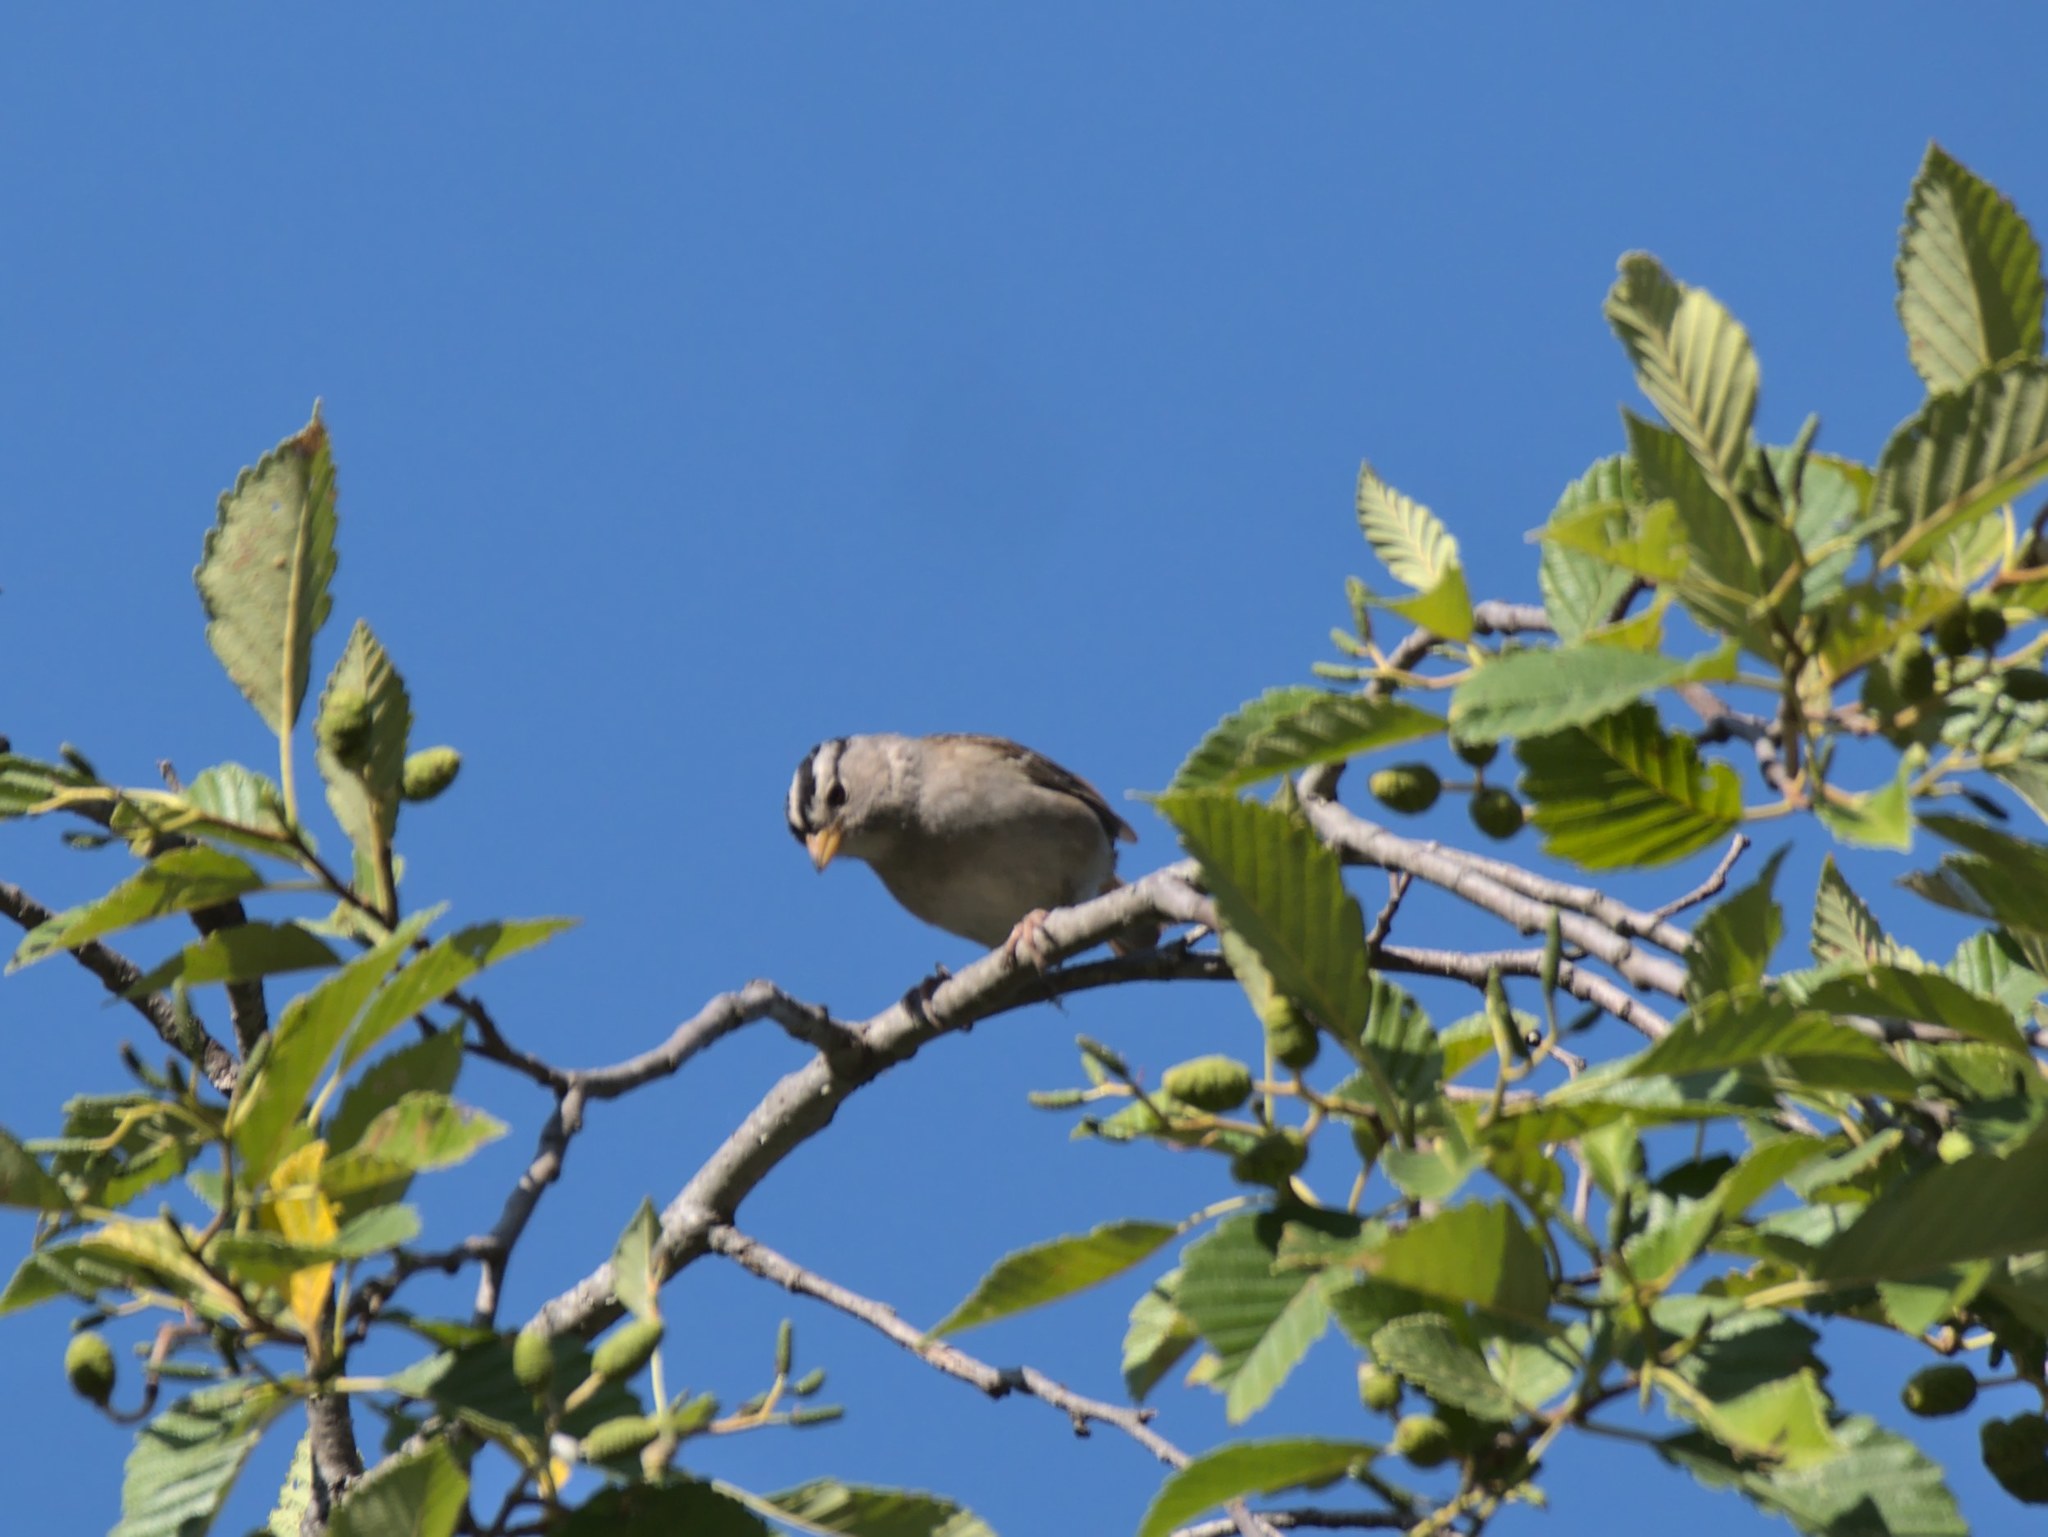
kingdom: Animalia
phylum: Chordata
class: Aves
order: Passeriformes
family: Passerellidae
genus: Zonotrichia
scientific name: Zonotrichia leucophrys
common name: White-crowned sparrow
